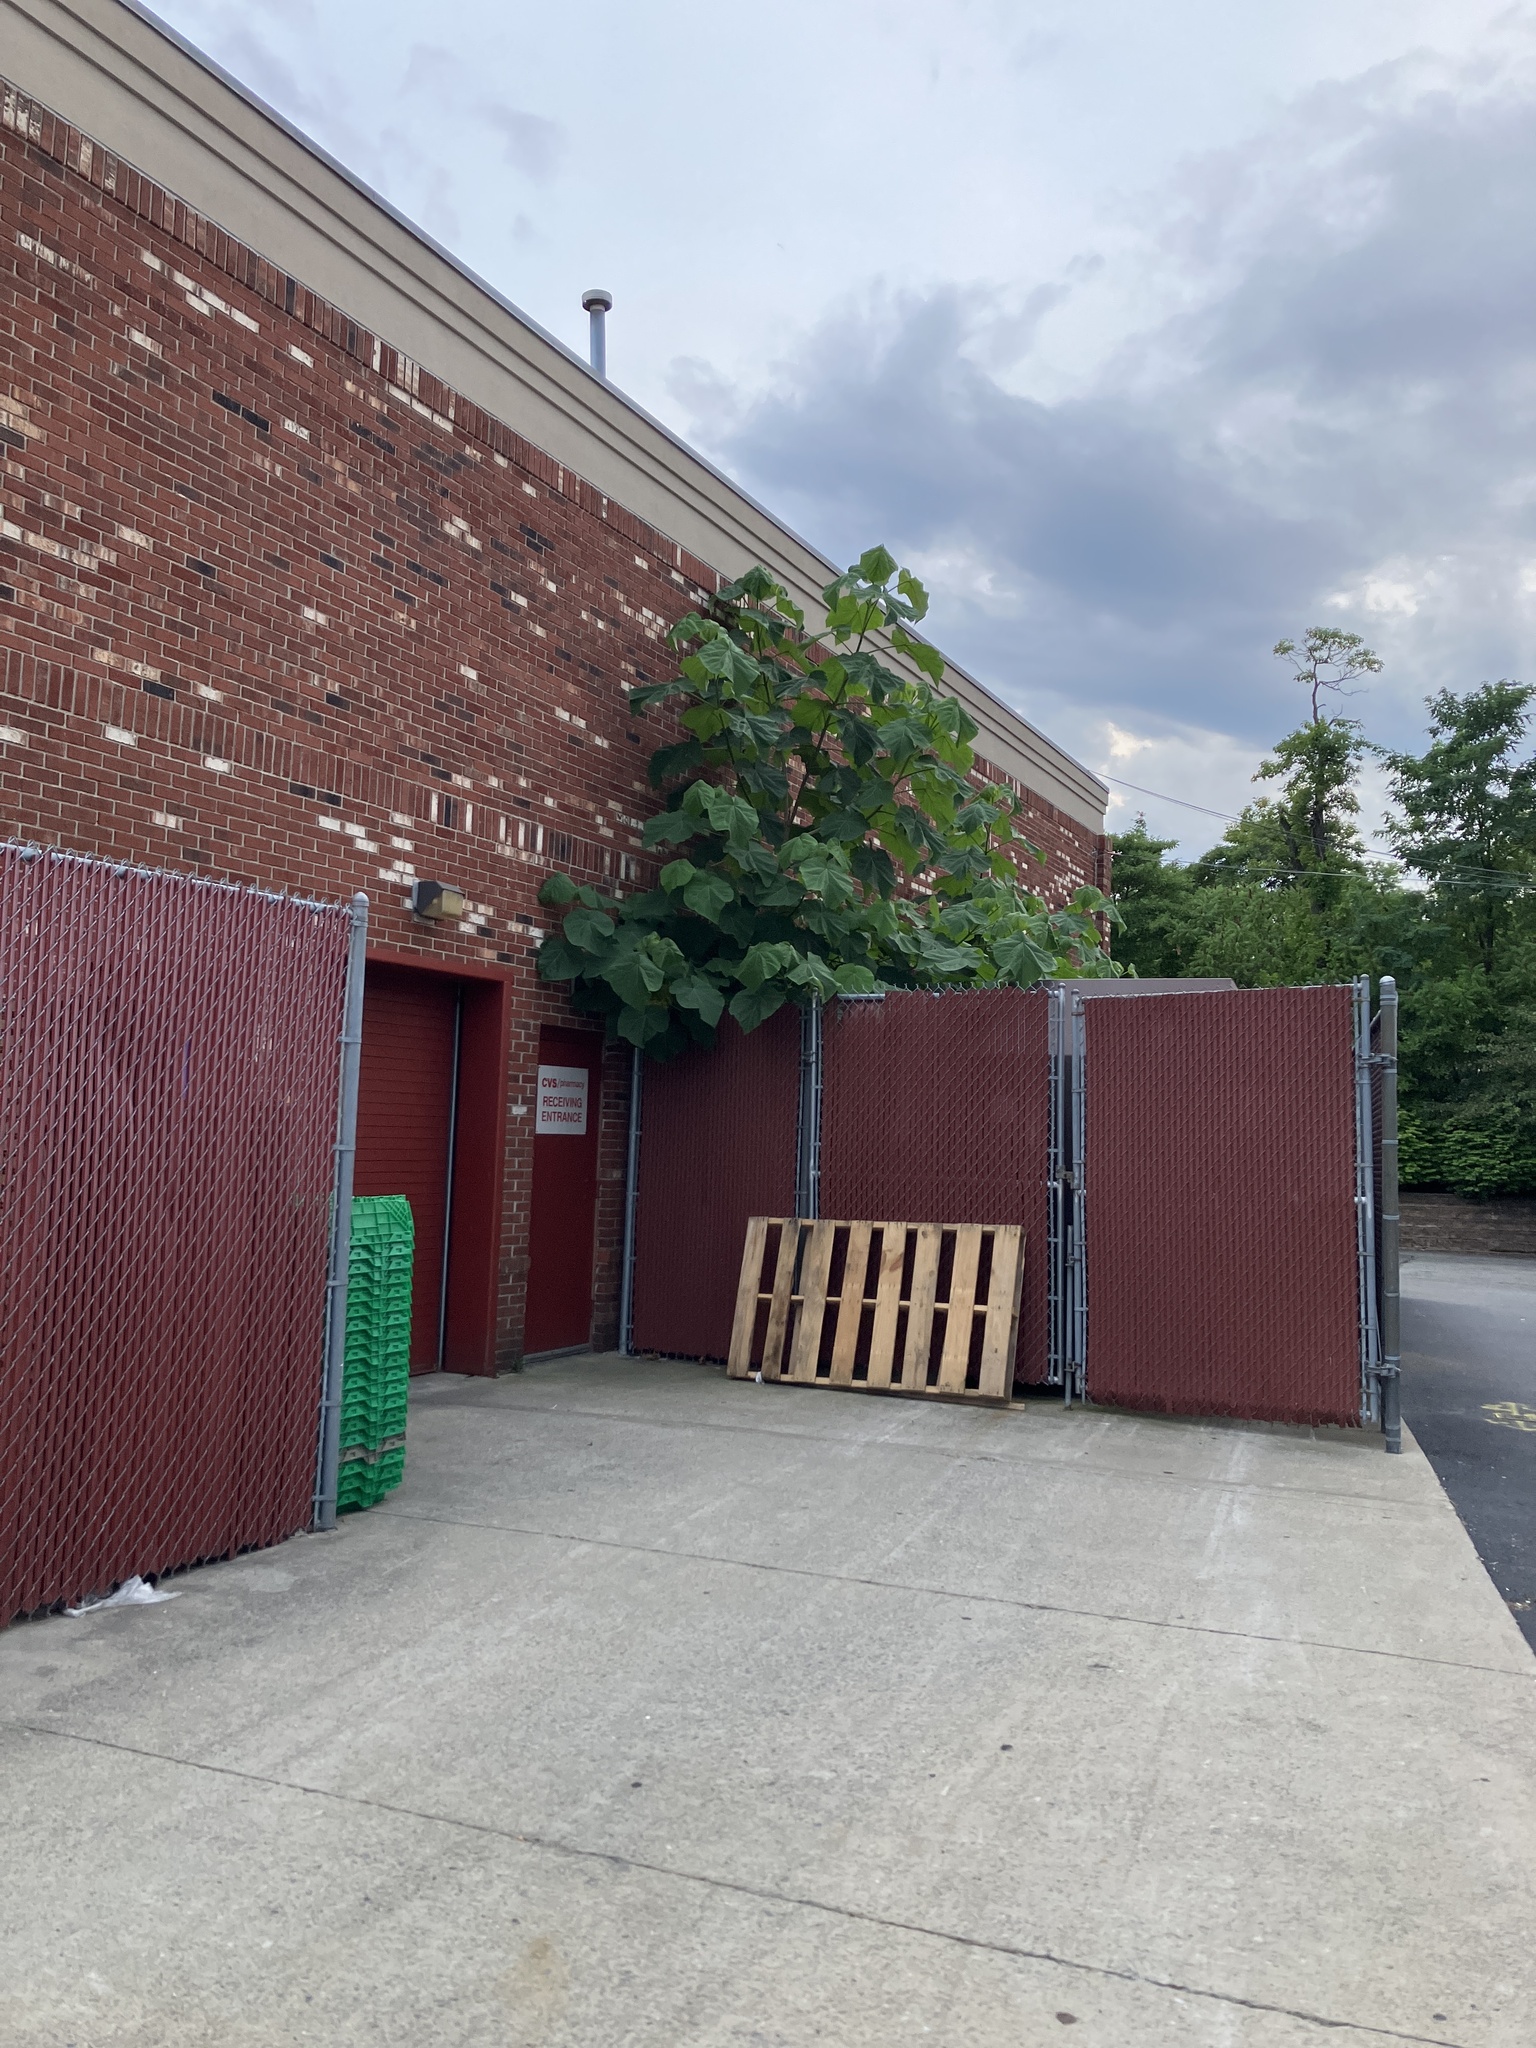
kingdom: Plantae
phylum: Tracheophyta
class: Magnoliopsida
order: Lamiales
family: Paulowniaceae
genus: Paulownia
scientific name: Paulownia tomentosa
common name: Foxglove-tree
